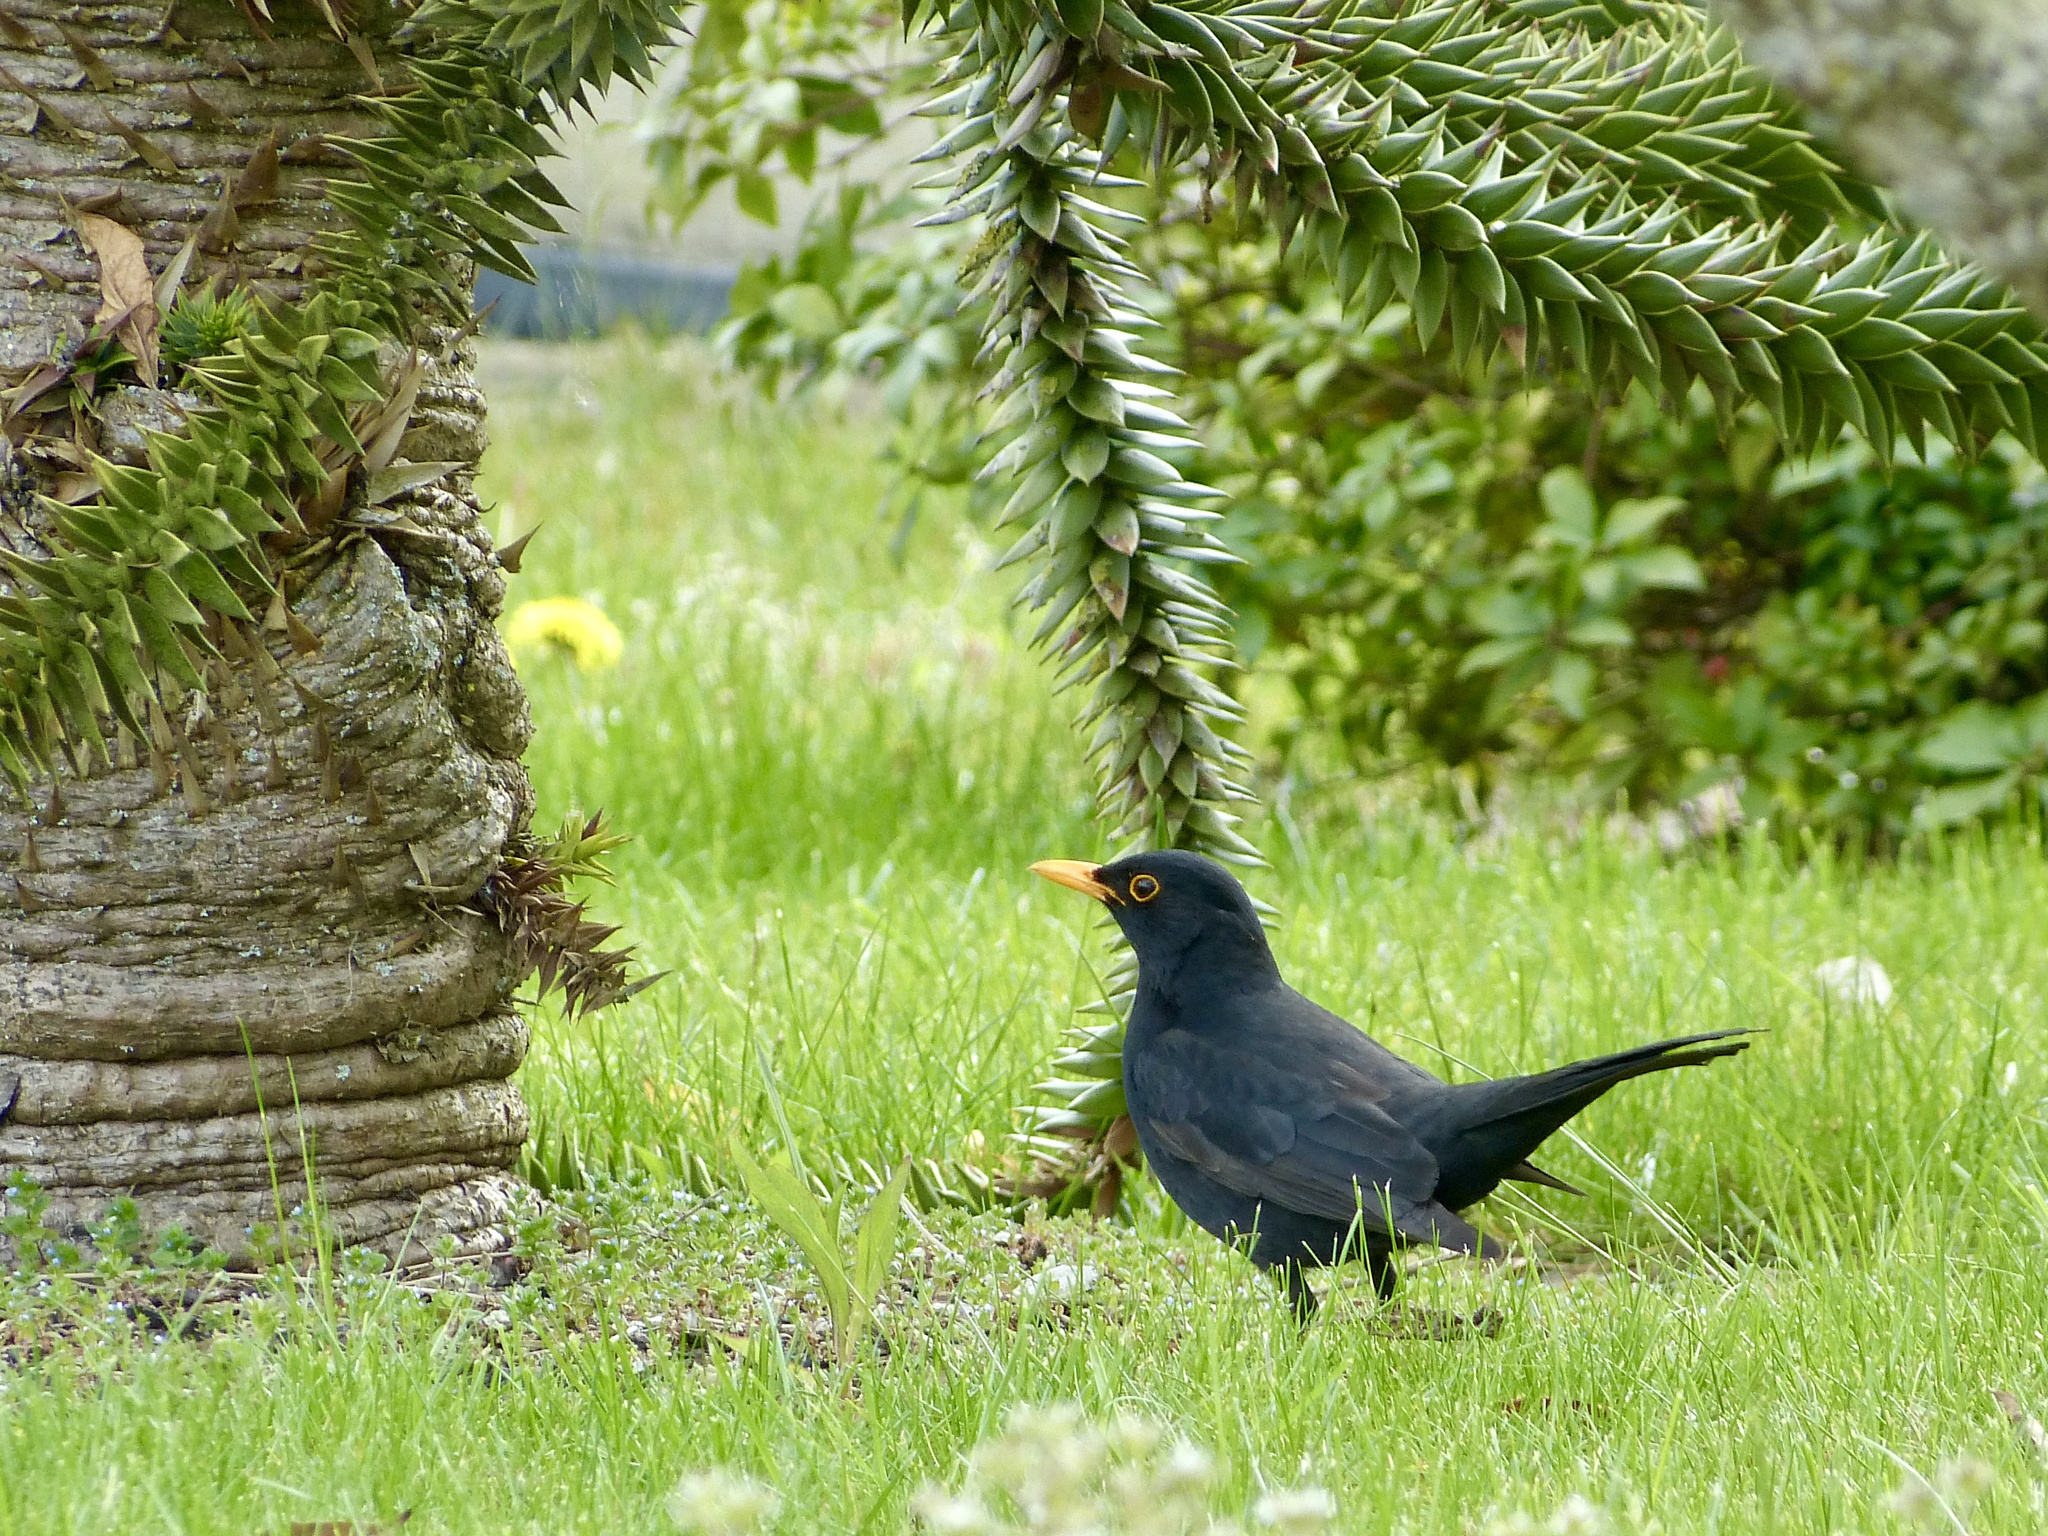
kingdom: Animalia
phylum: Chordata
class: Aves
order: Passeriformes
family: Turdidae
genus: Turdus
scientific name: Turdus merula
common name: Common blackbird
